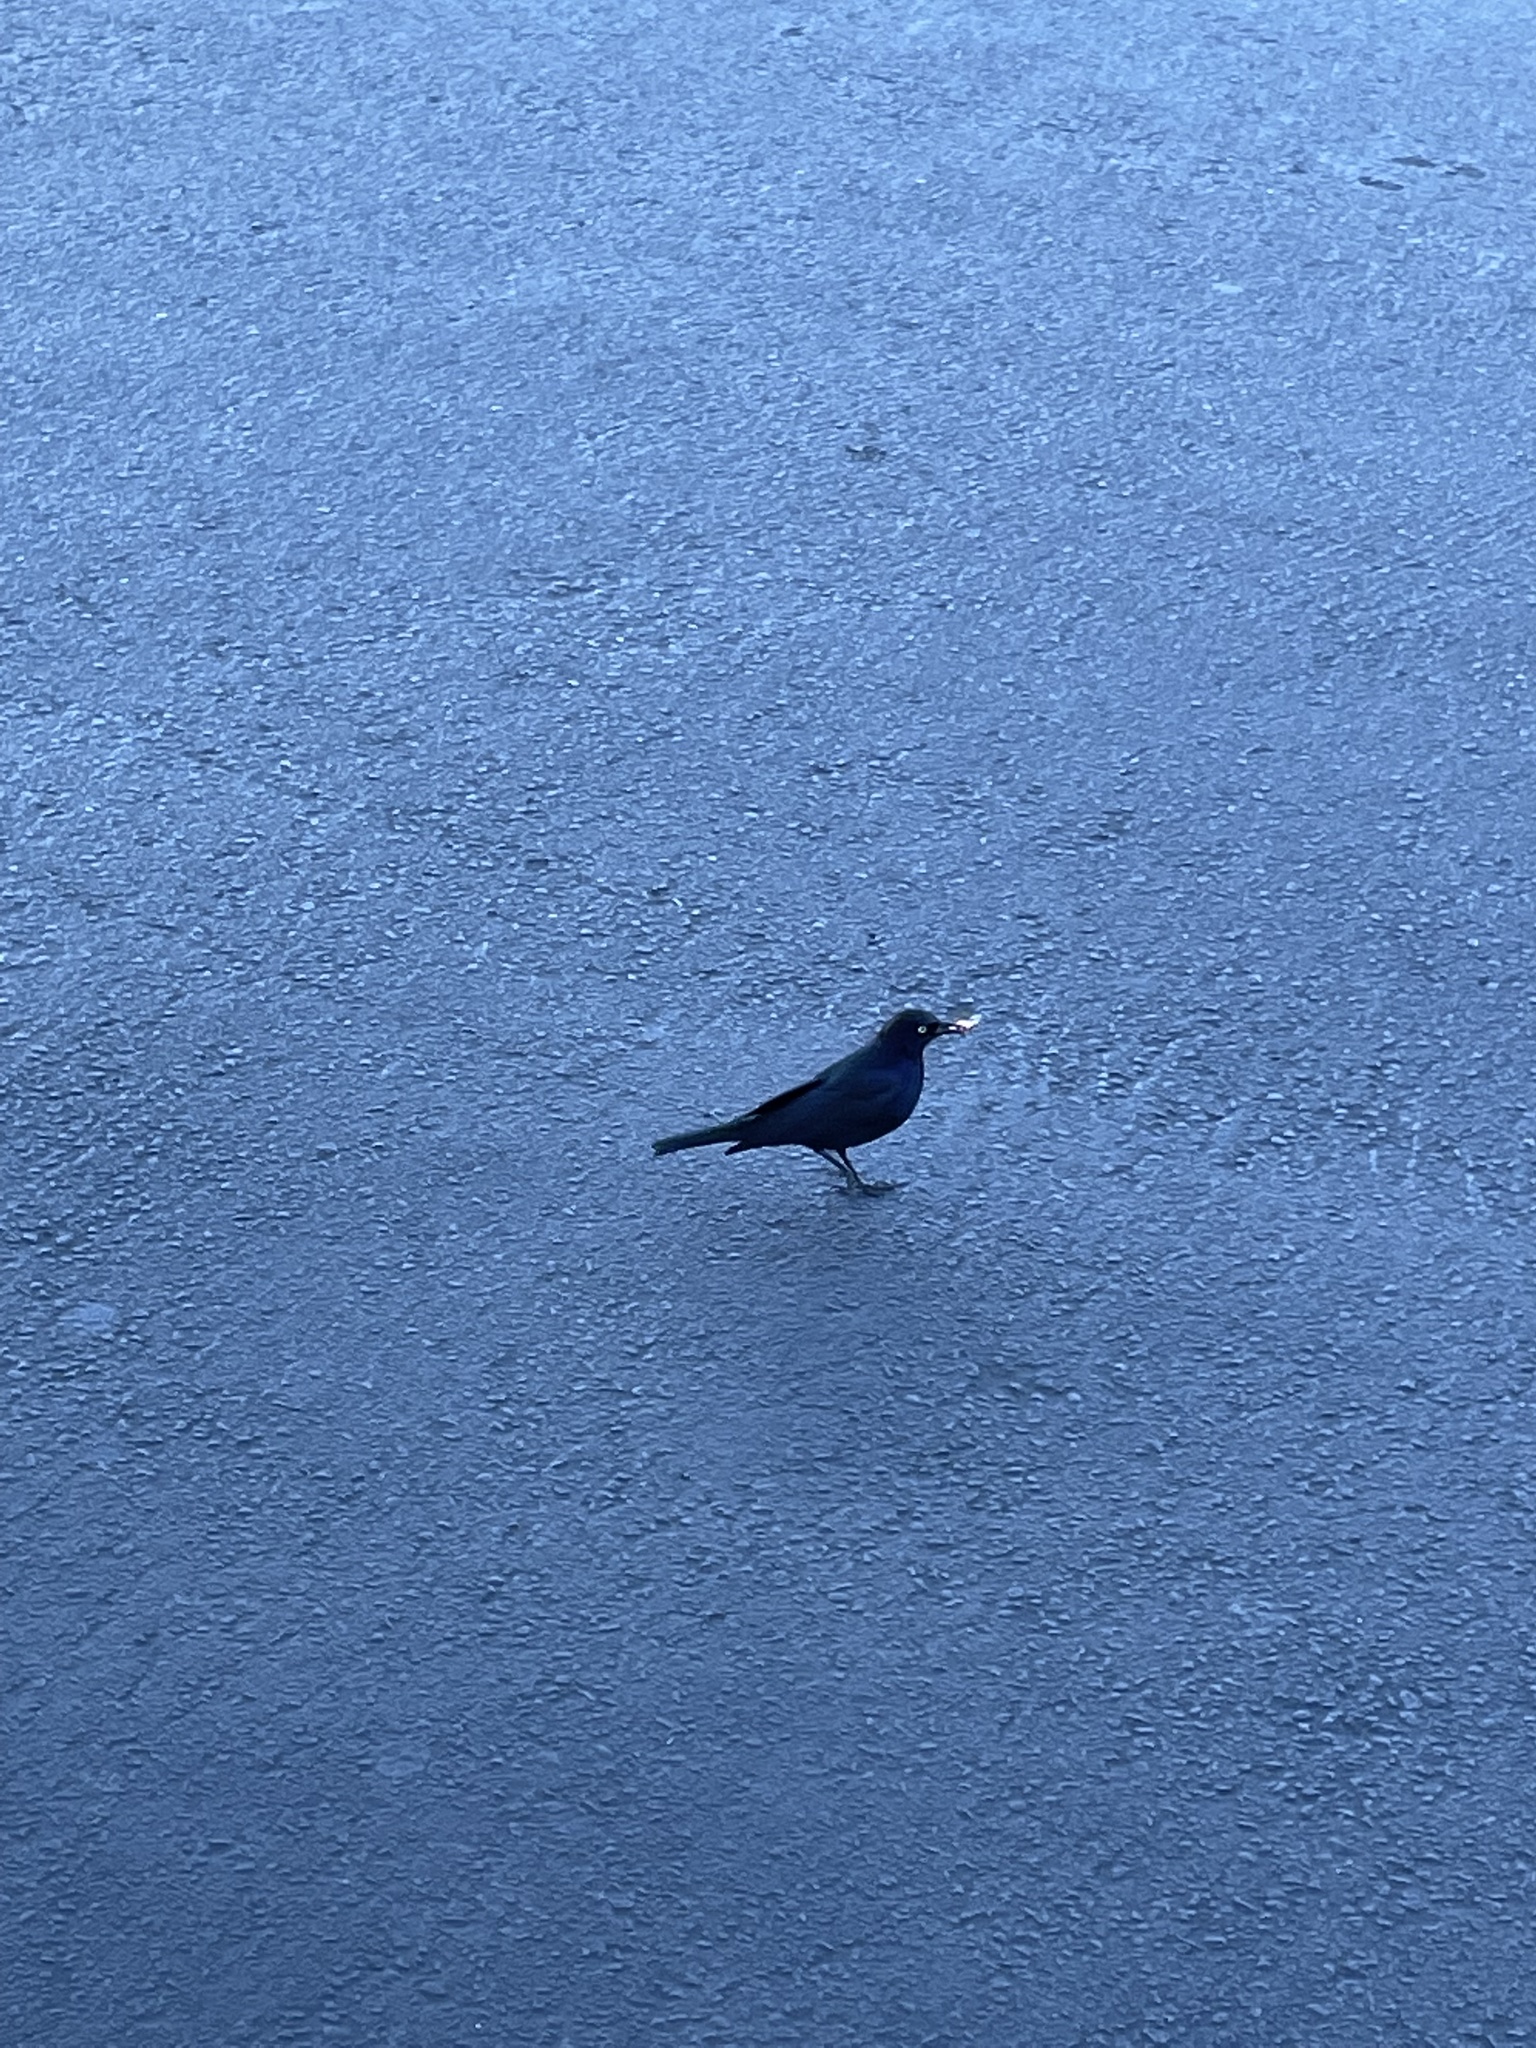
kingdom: Animalia
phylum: Chordata
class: Aves
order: Passeriformes
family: Icteridae
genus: Euphagus
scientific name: Euphagus cyanocephalus
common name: Brewer's blackbird
